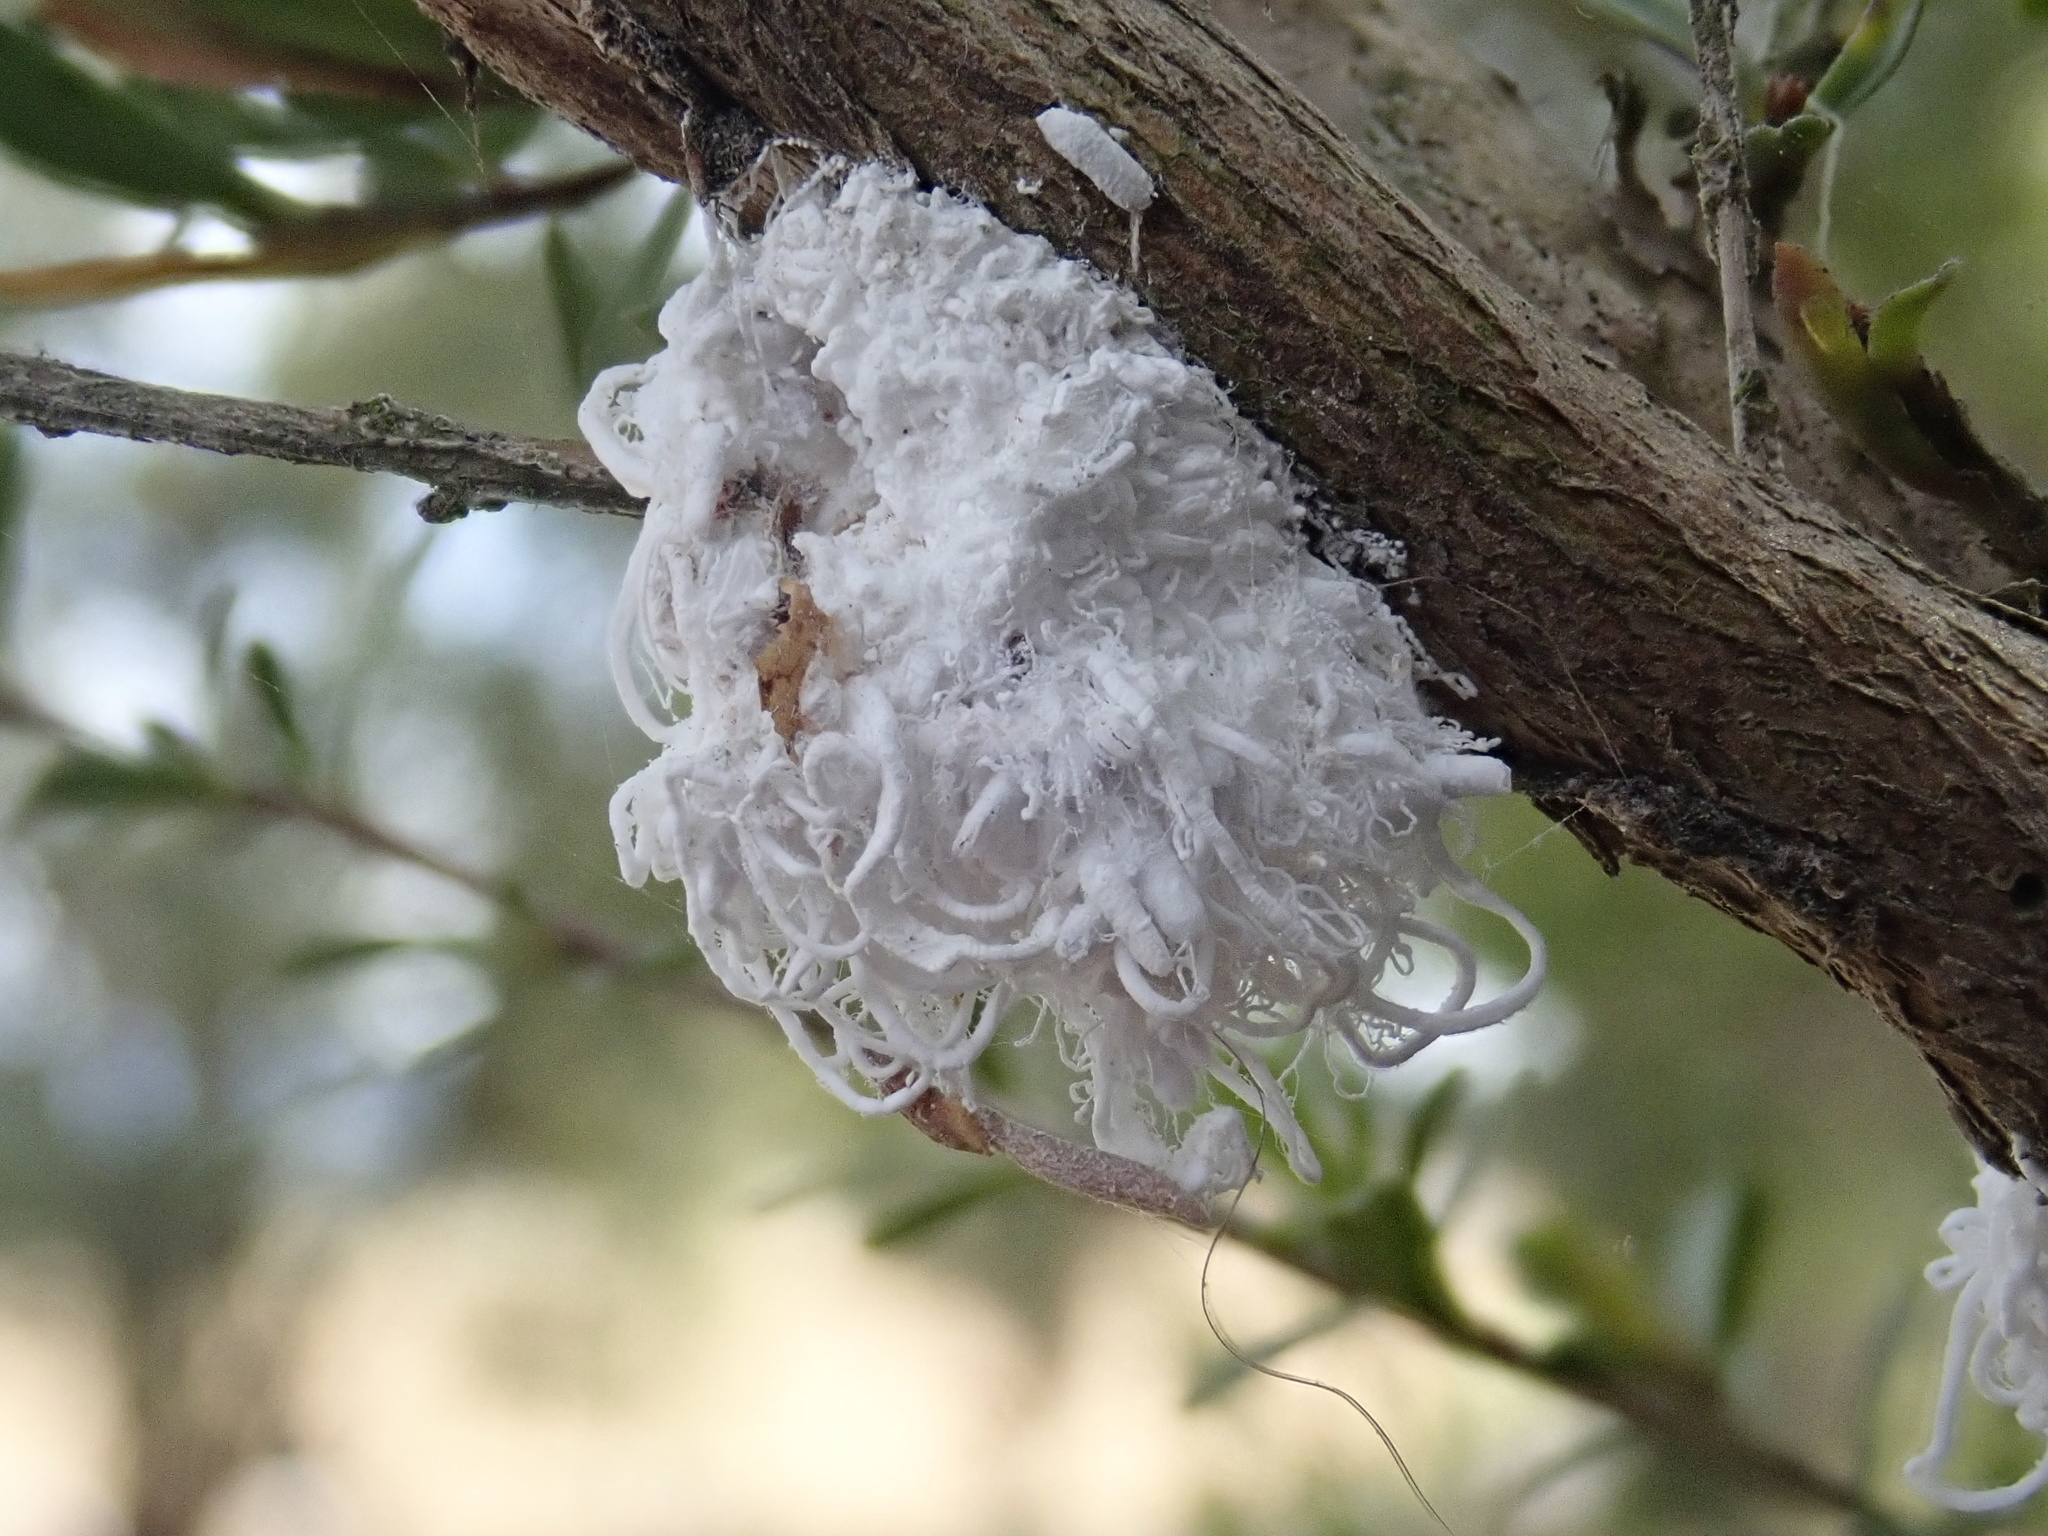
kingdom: Animalia
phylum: Arthropoda
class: Insecta
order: Hemiptera
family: Asterolecaniidae
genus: Callococcus
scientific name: Callococcus
